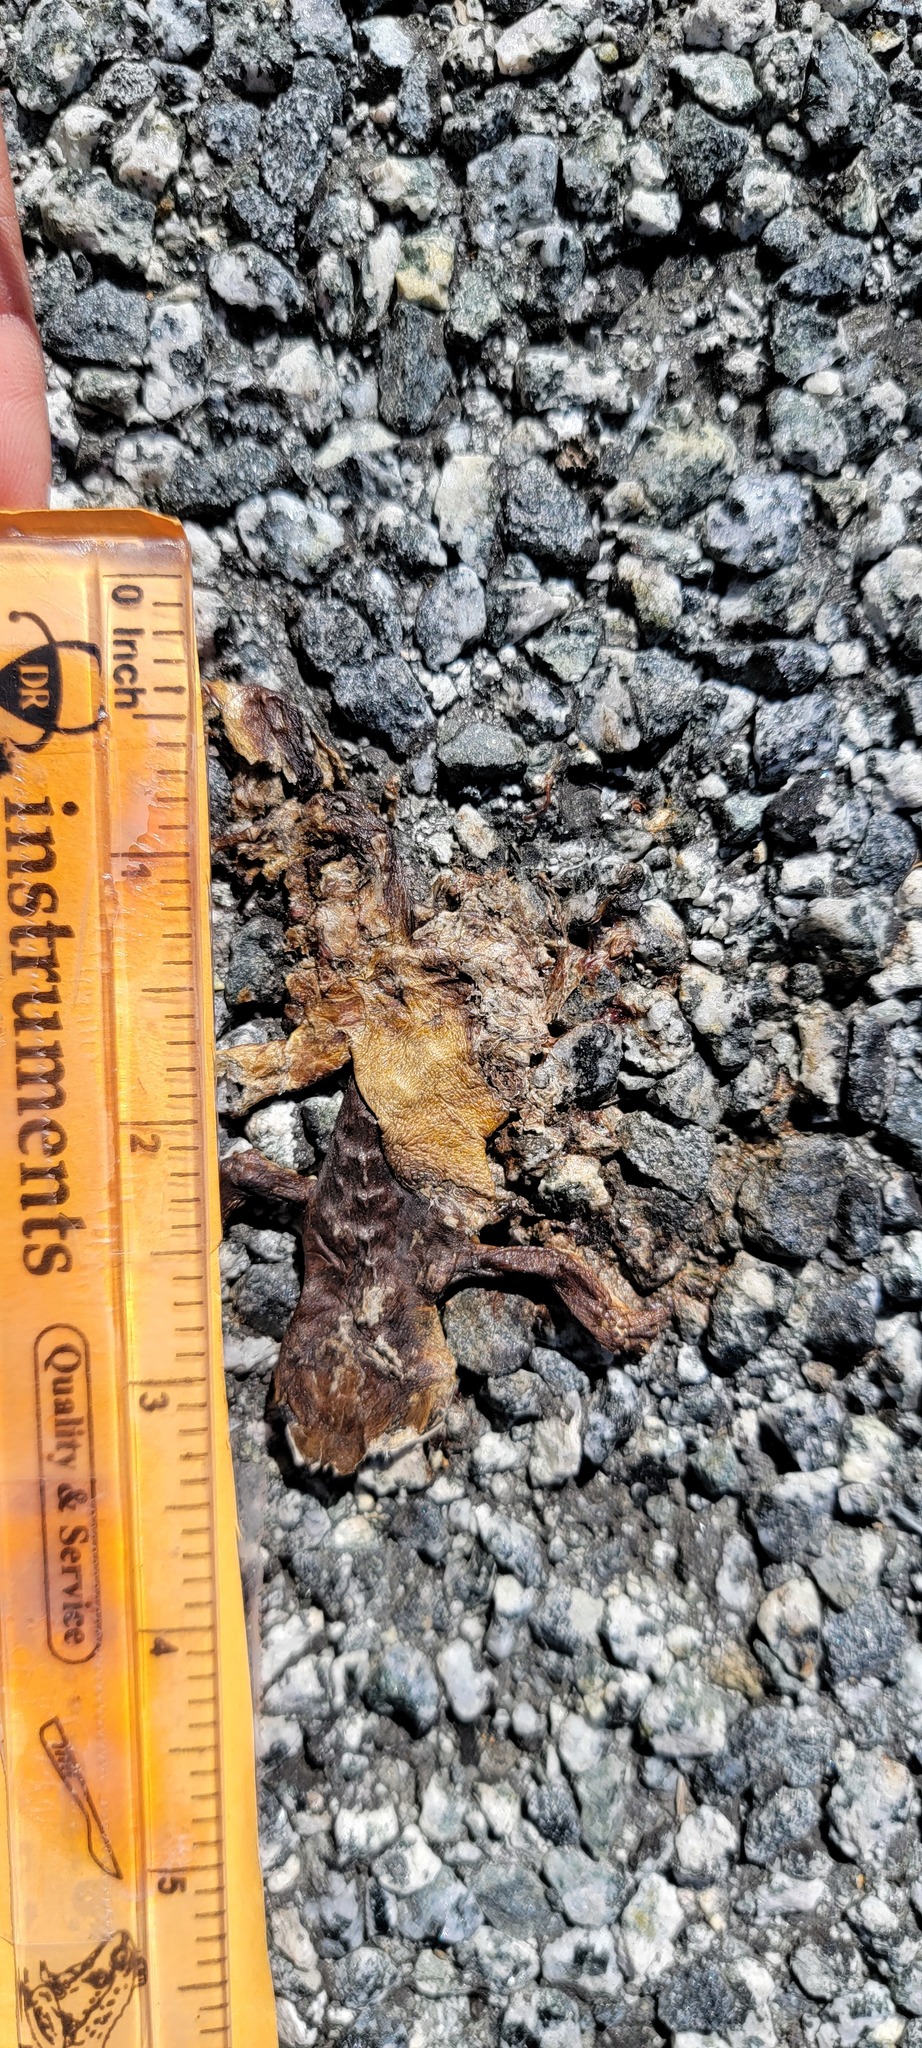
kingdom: Animalia
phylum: Chordata
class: Amphibia
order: Caudata
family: Salamandridae
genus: Taricha
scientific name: Taricha
